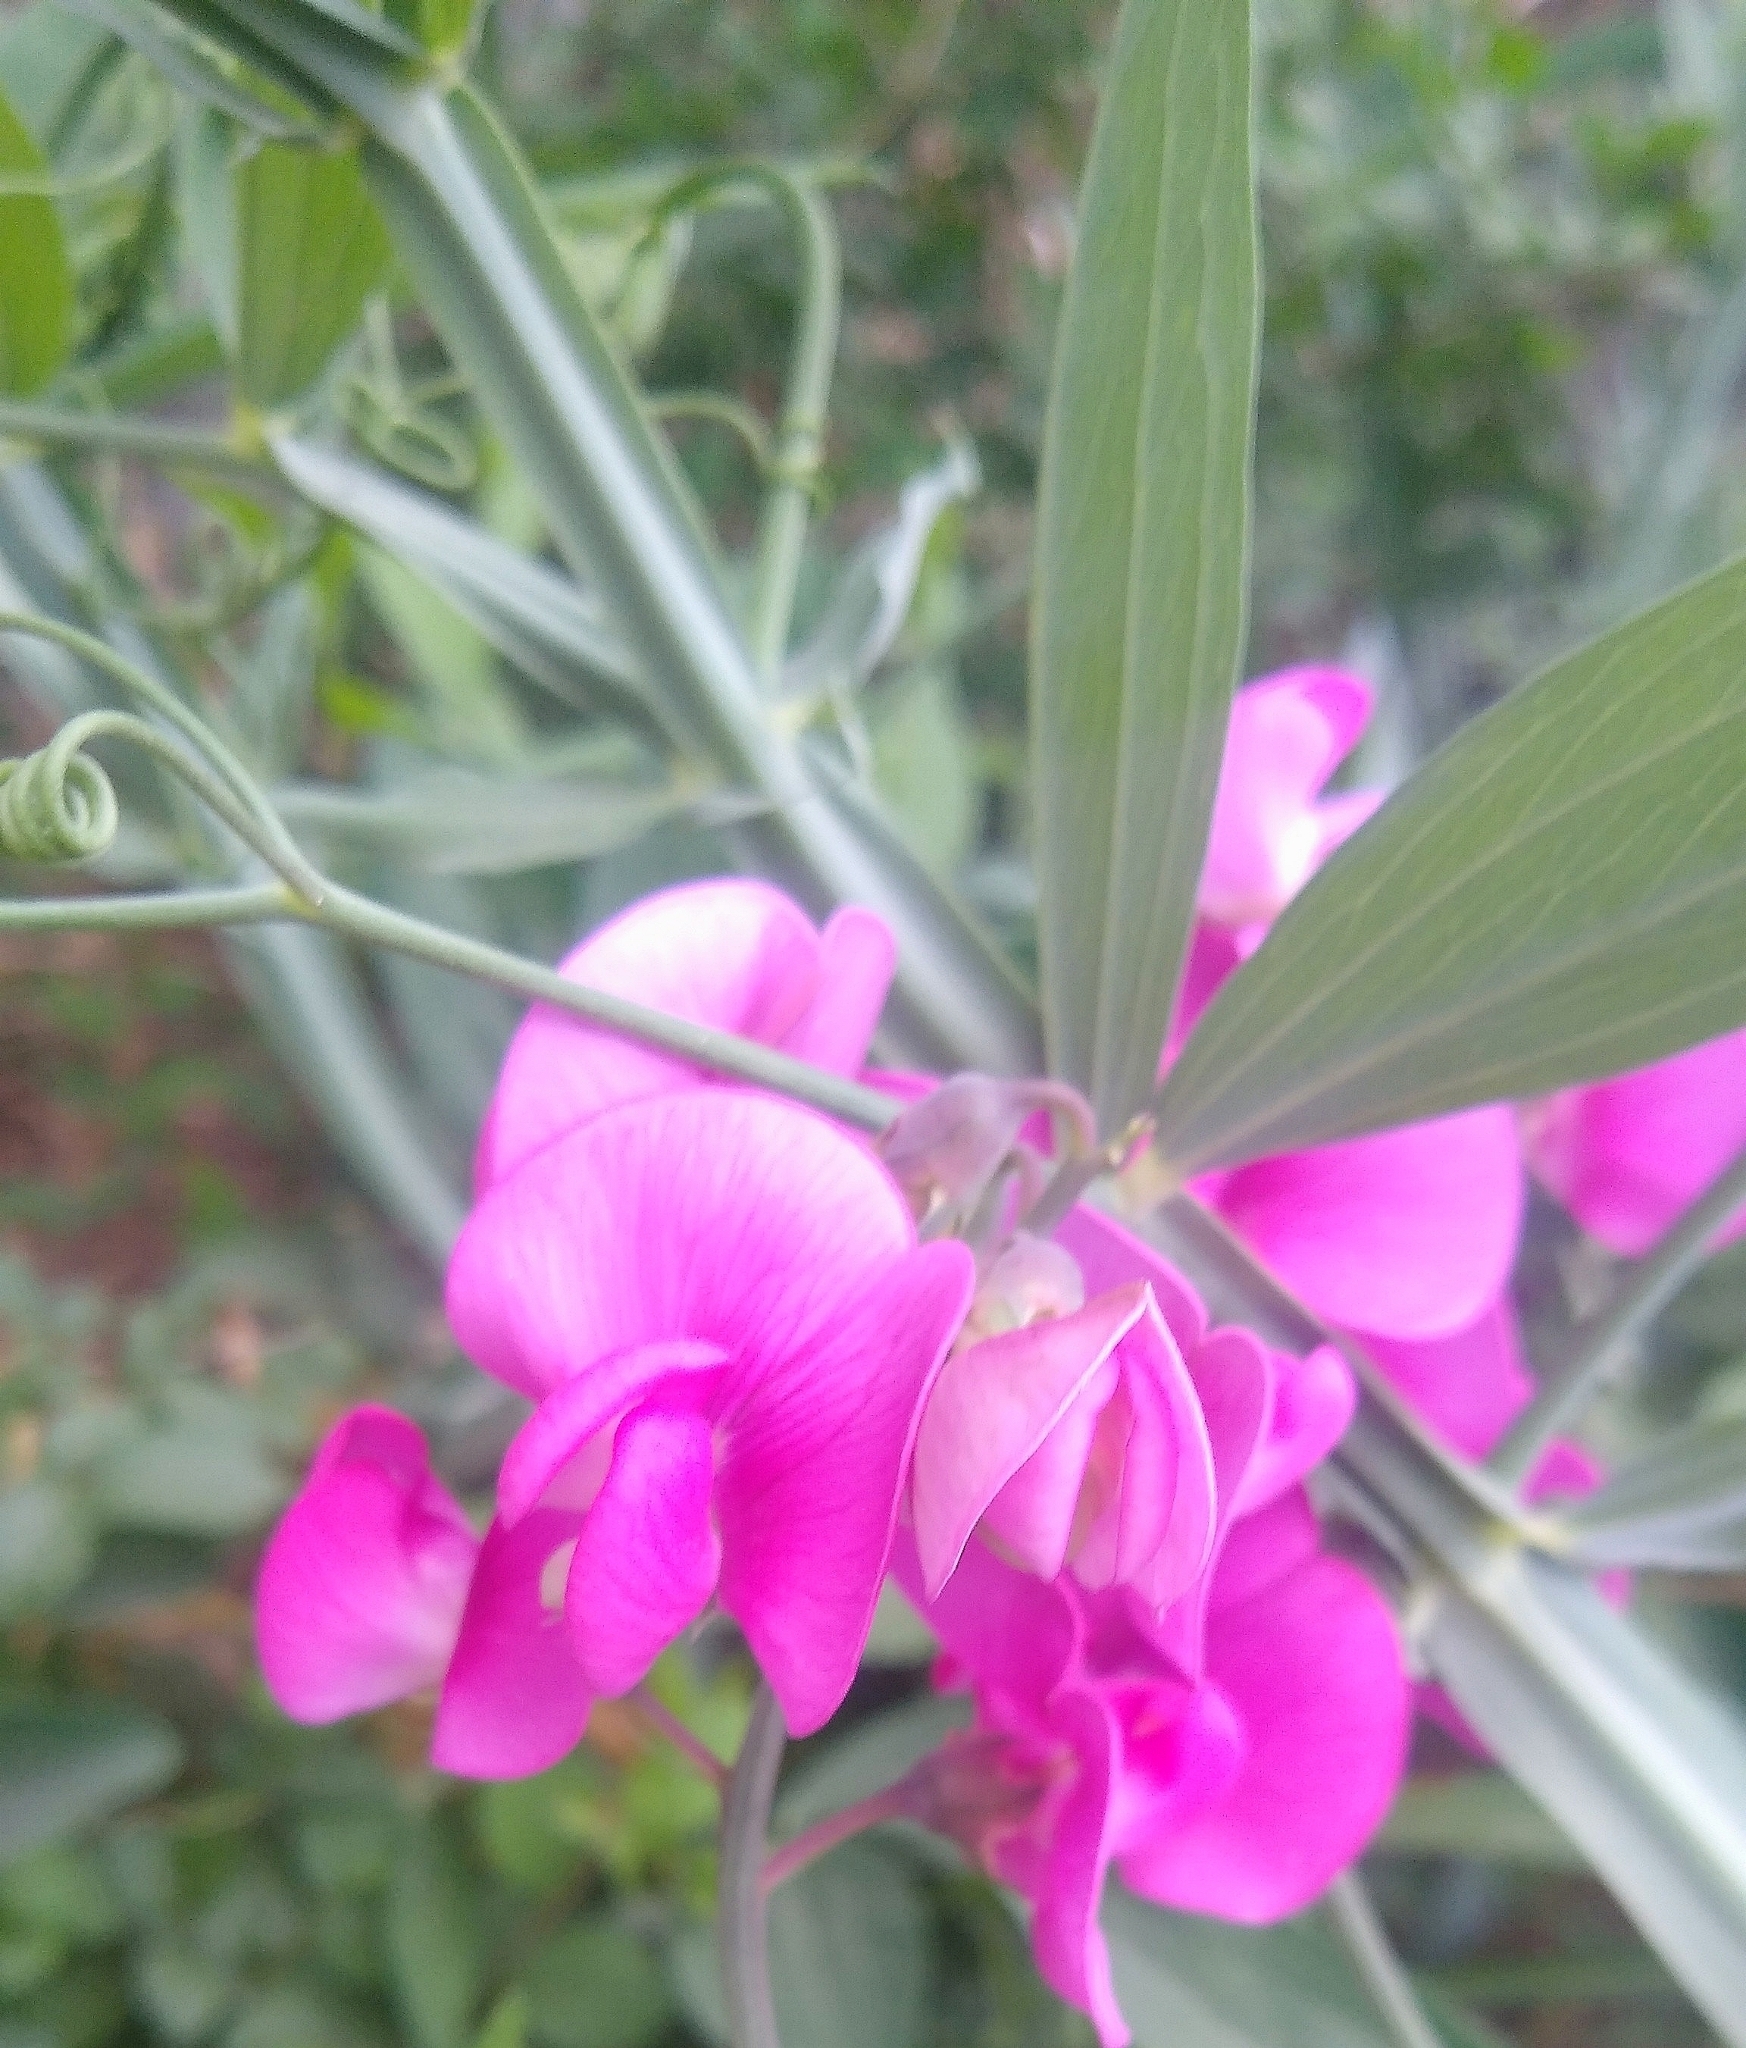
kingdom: Plantae
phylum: Tracheophyta
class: Magnoliopsida
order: Fabales
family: Fabaceae
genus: Lathyrus
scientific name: Lathyrus latifolius
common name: Perennial pea
